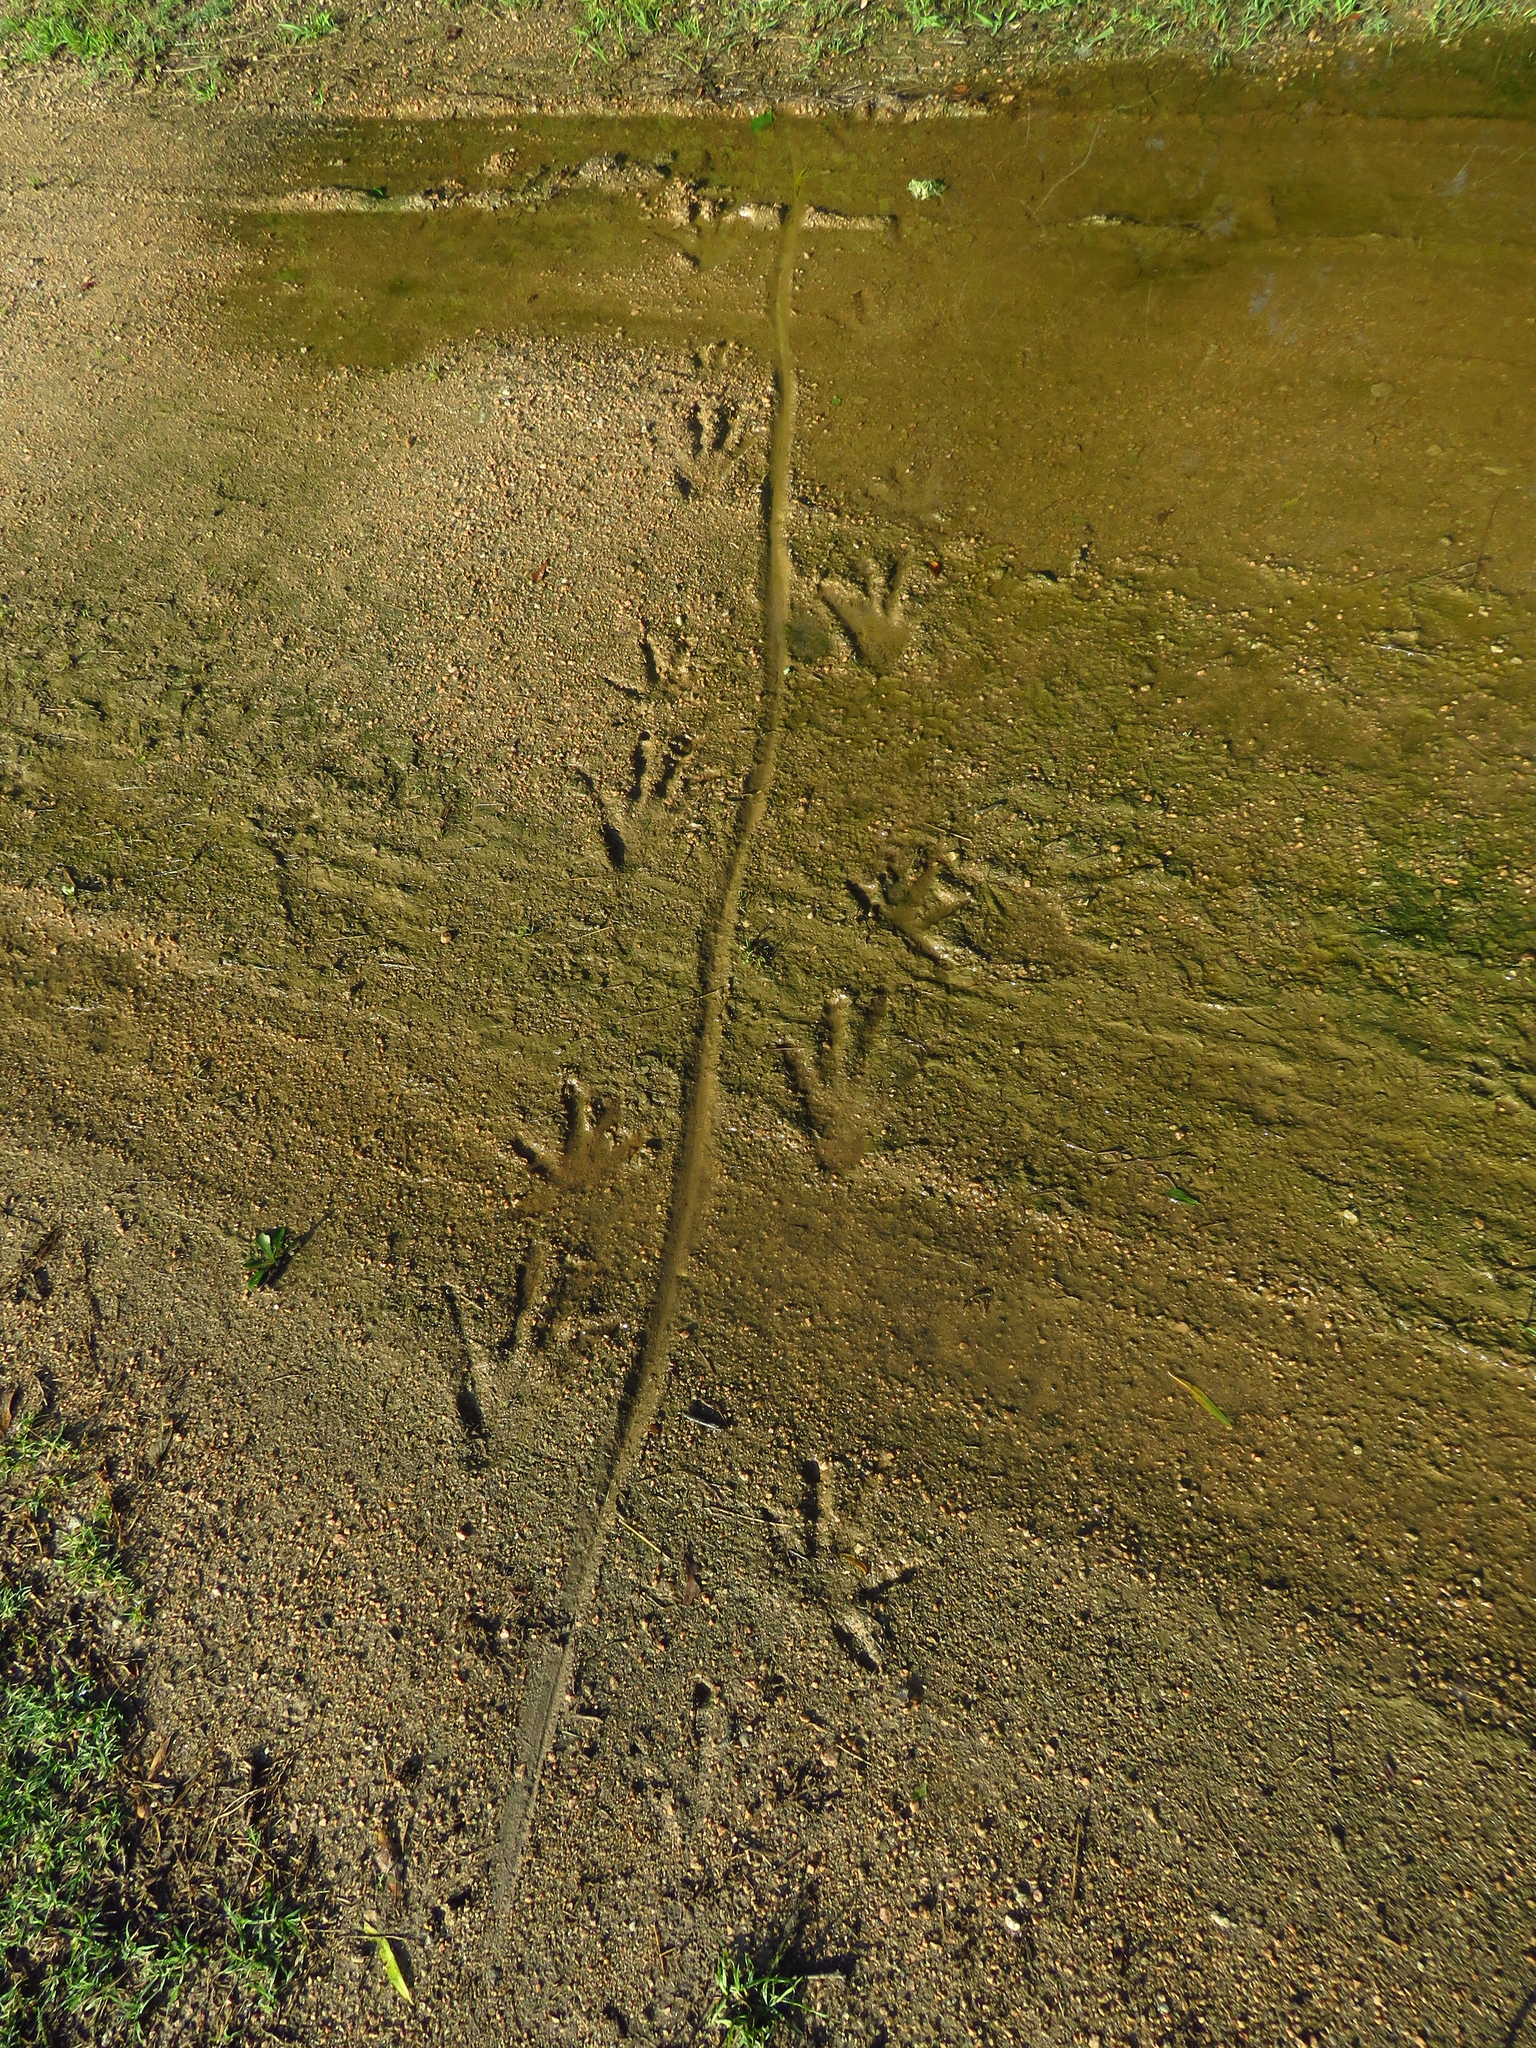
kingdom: Animalia
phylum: Chordata
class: Crocodylia
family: Alligatoridae
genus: Alligator
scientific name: Alligator mississippiensis
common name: American alligator
